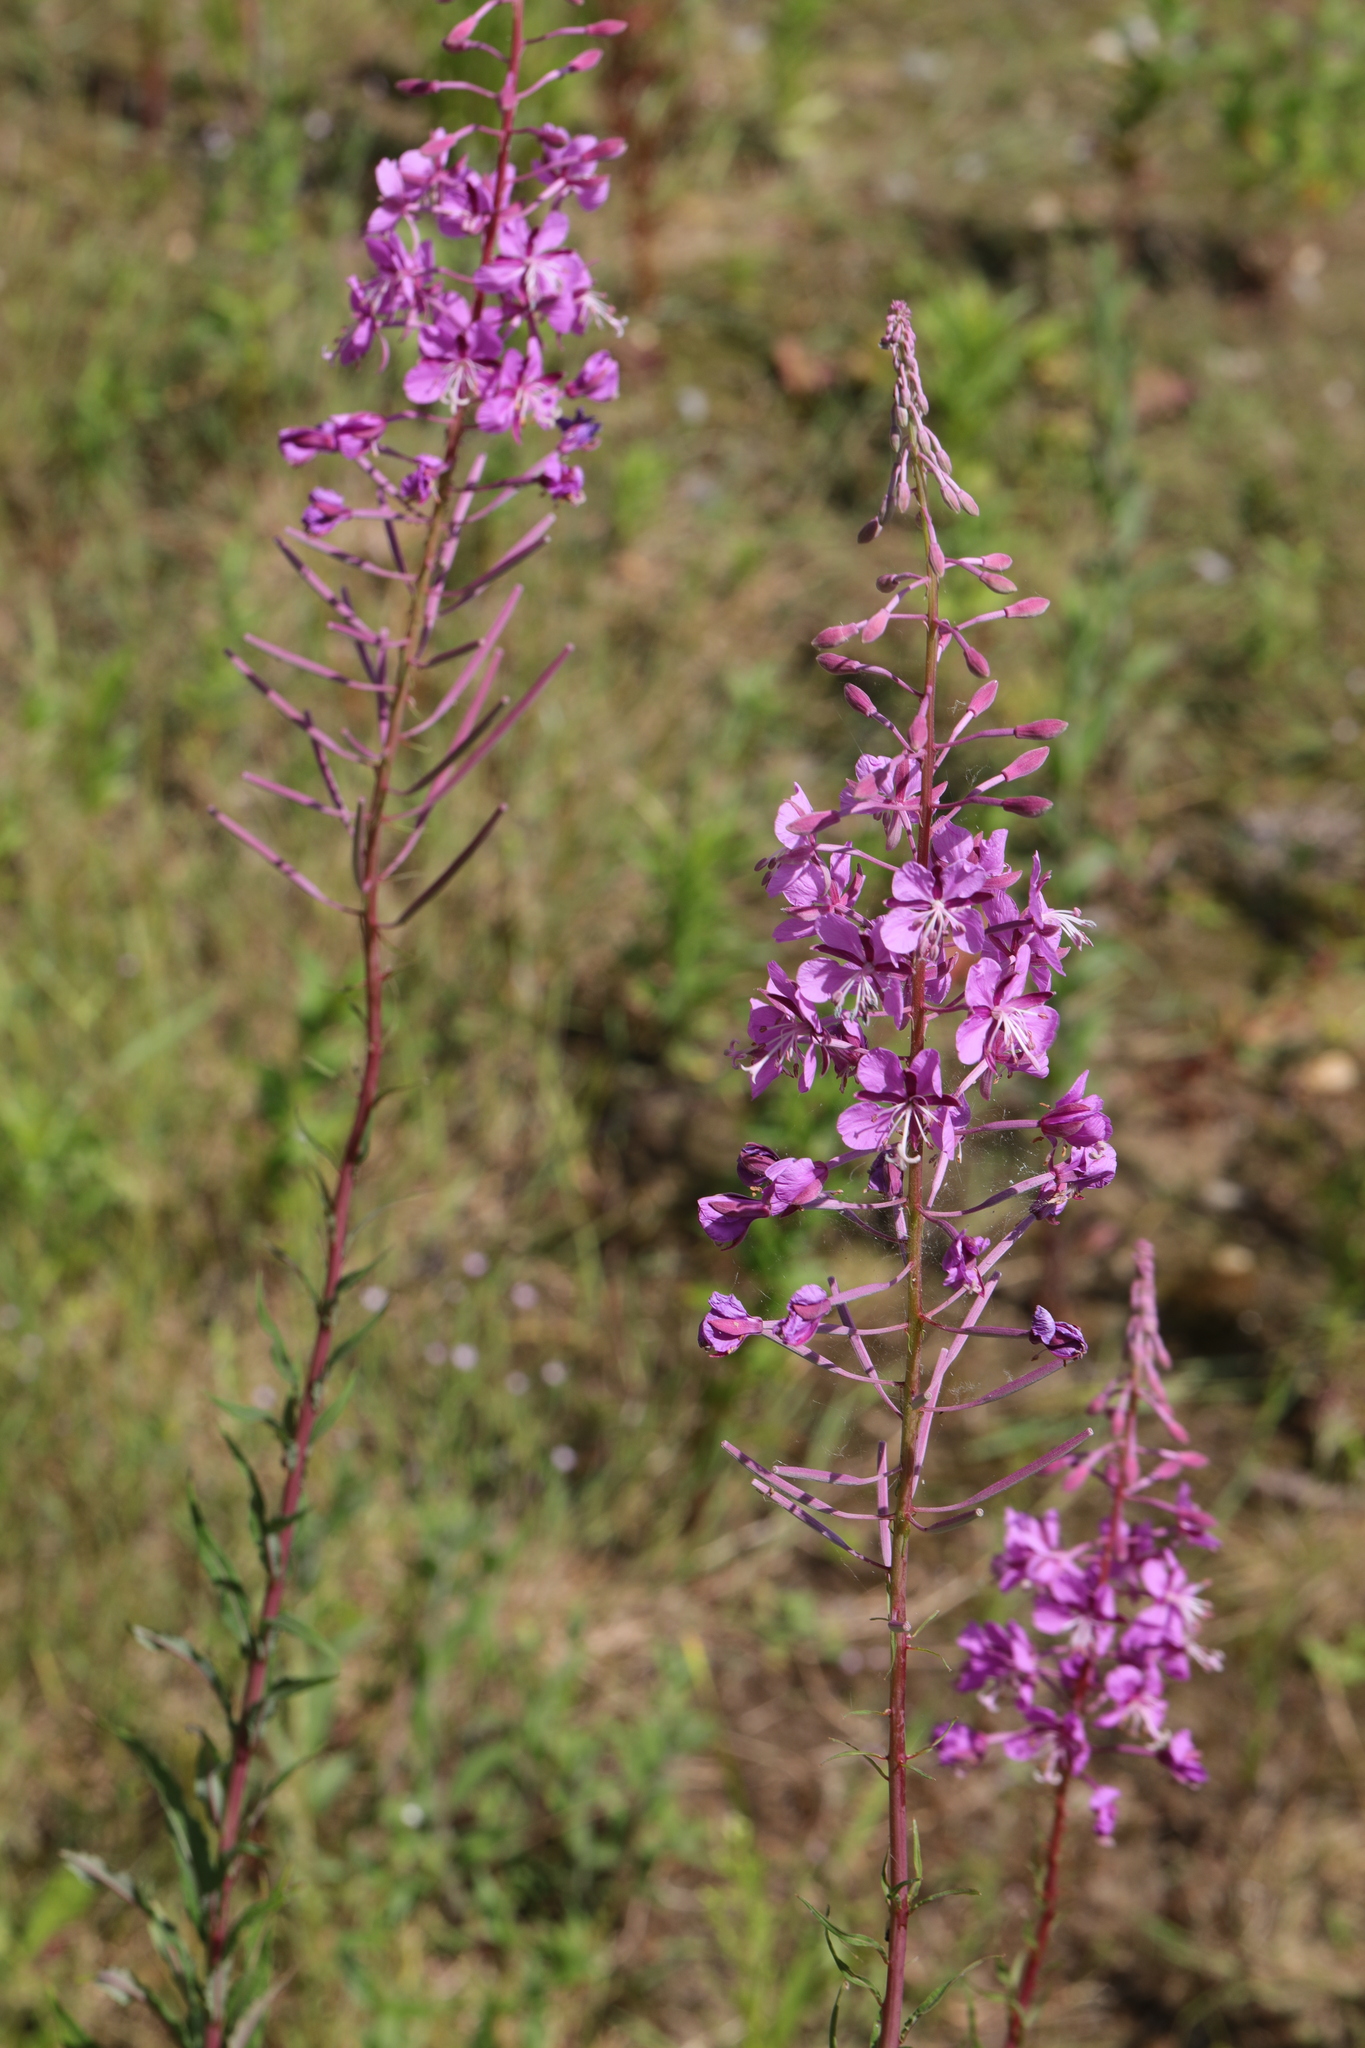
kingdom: Plantae
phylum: Tracheophyta
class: Magnoliopsida
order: Myrtales
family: Onagraceae
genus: Chamaenerion
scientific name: Chamaenerion angustifolium
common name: Fireweed
